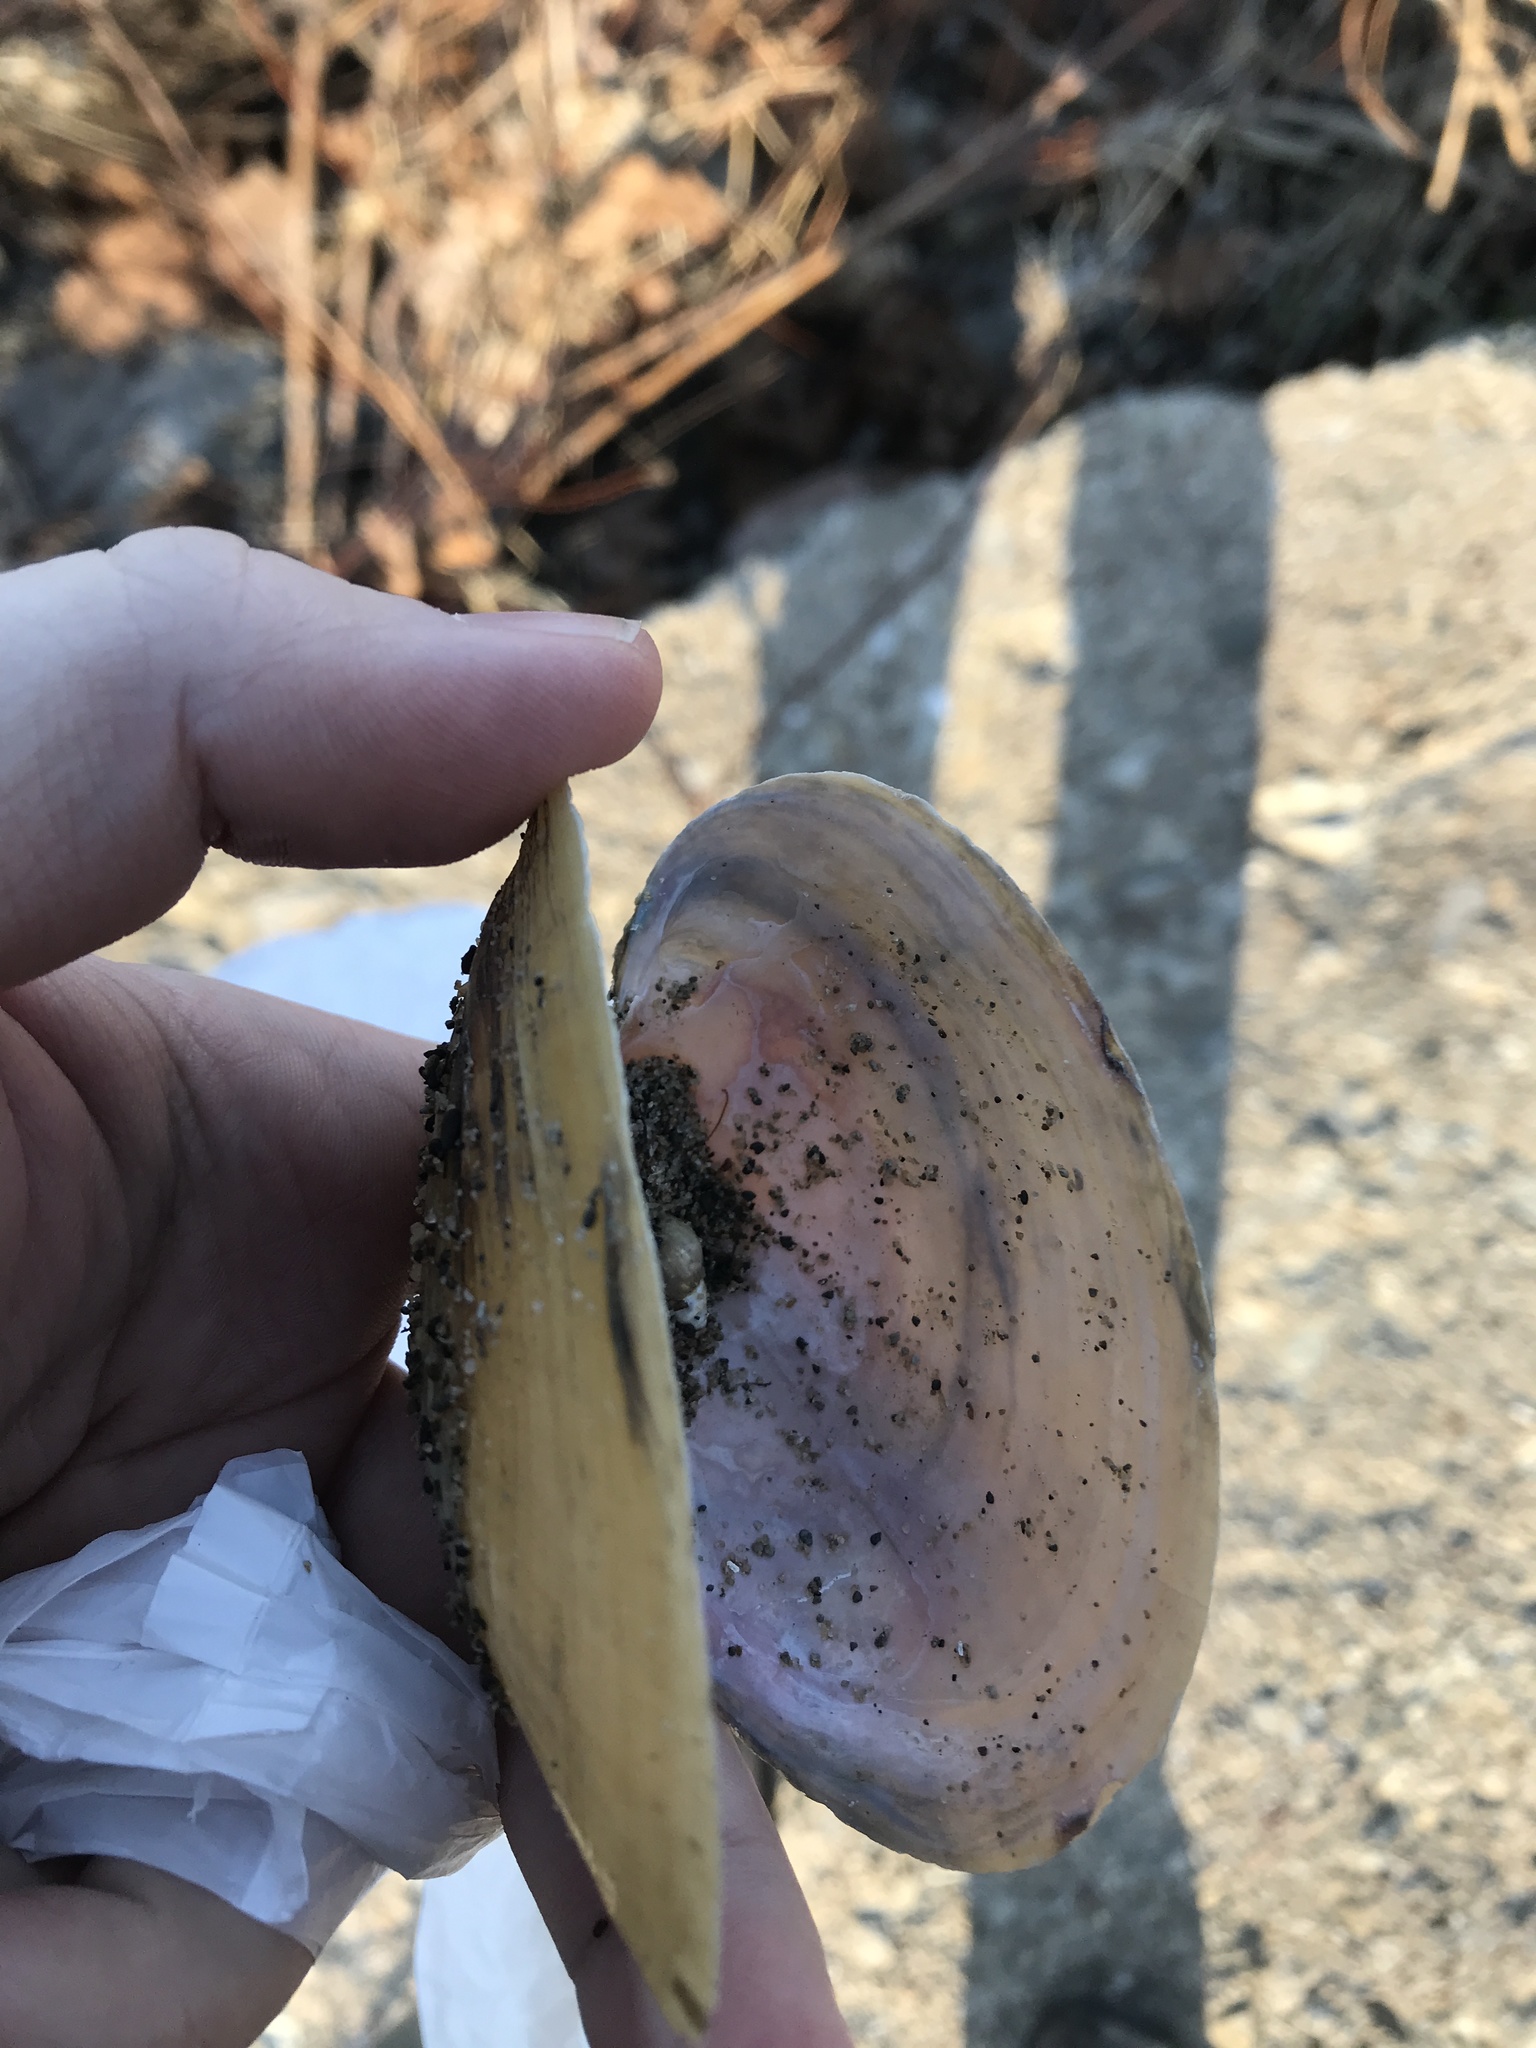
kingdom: Animalia
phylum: Mollusca
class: Bivalvia
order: Unionida
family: Unionidae
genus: Potamilus
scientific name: Potamilus fragilis
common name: Fragile papershell
